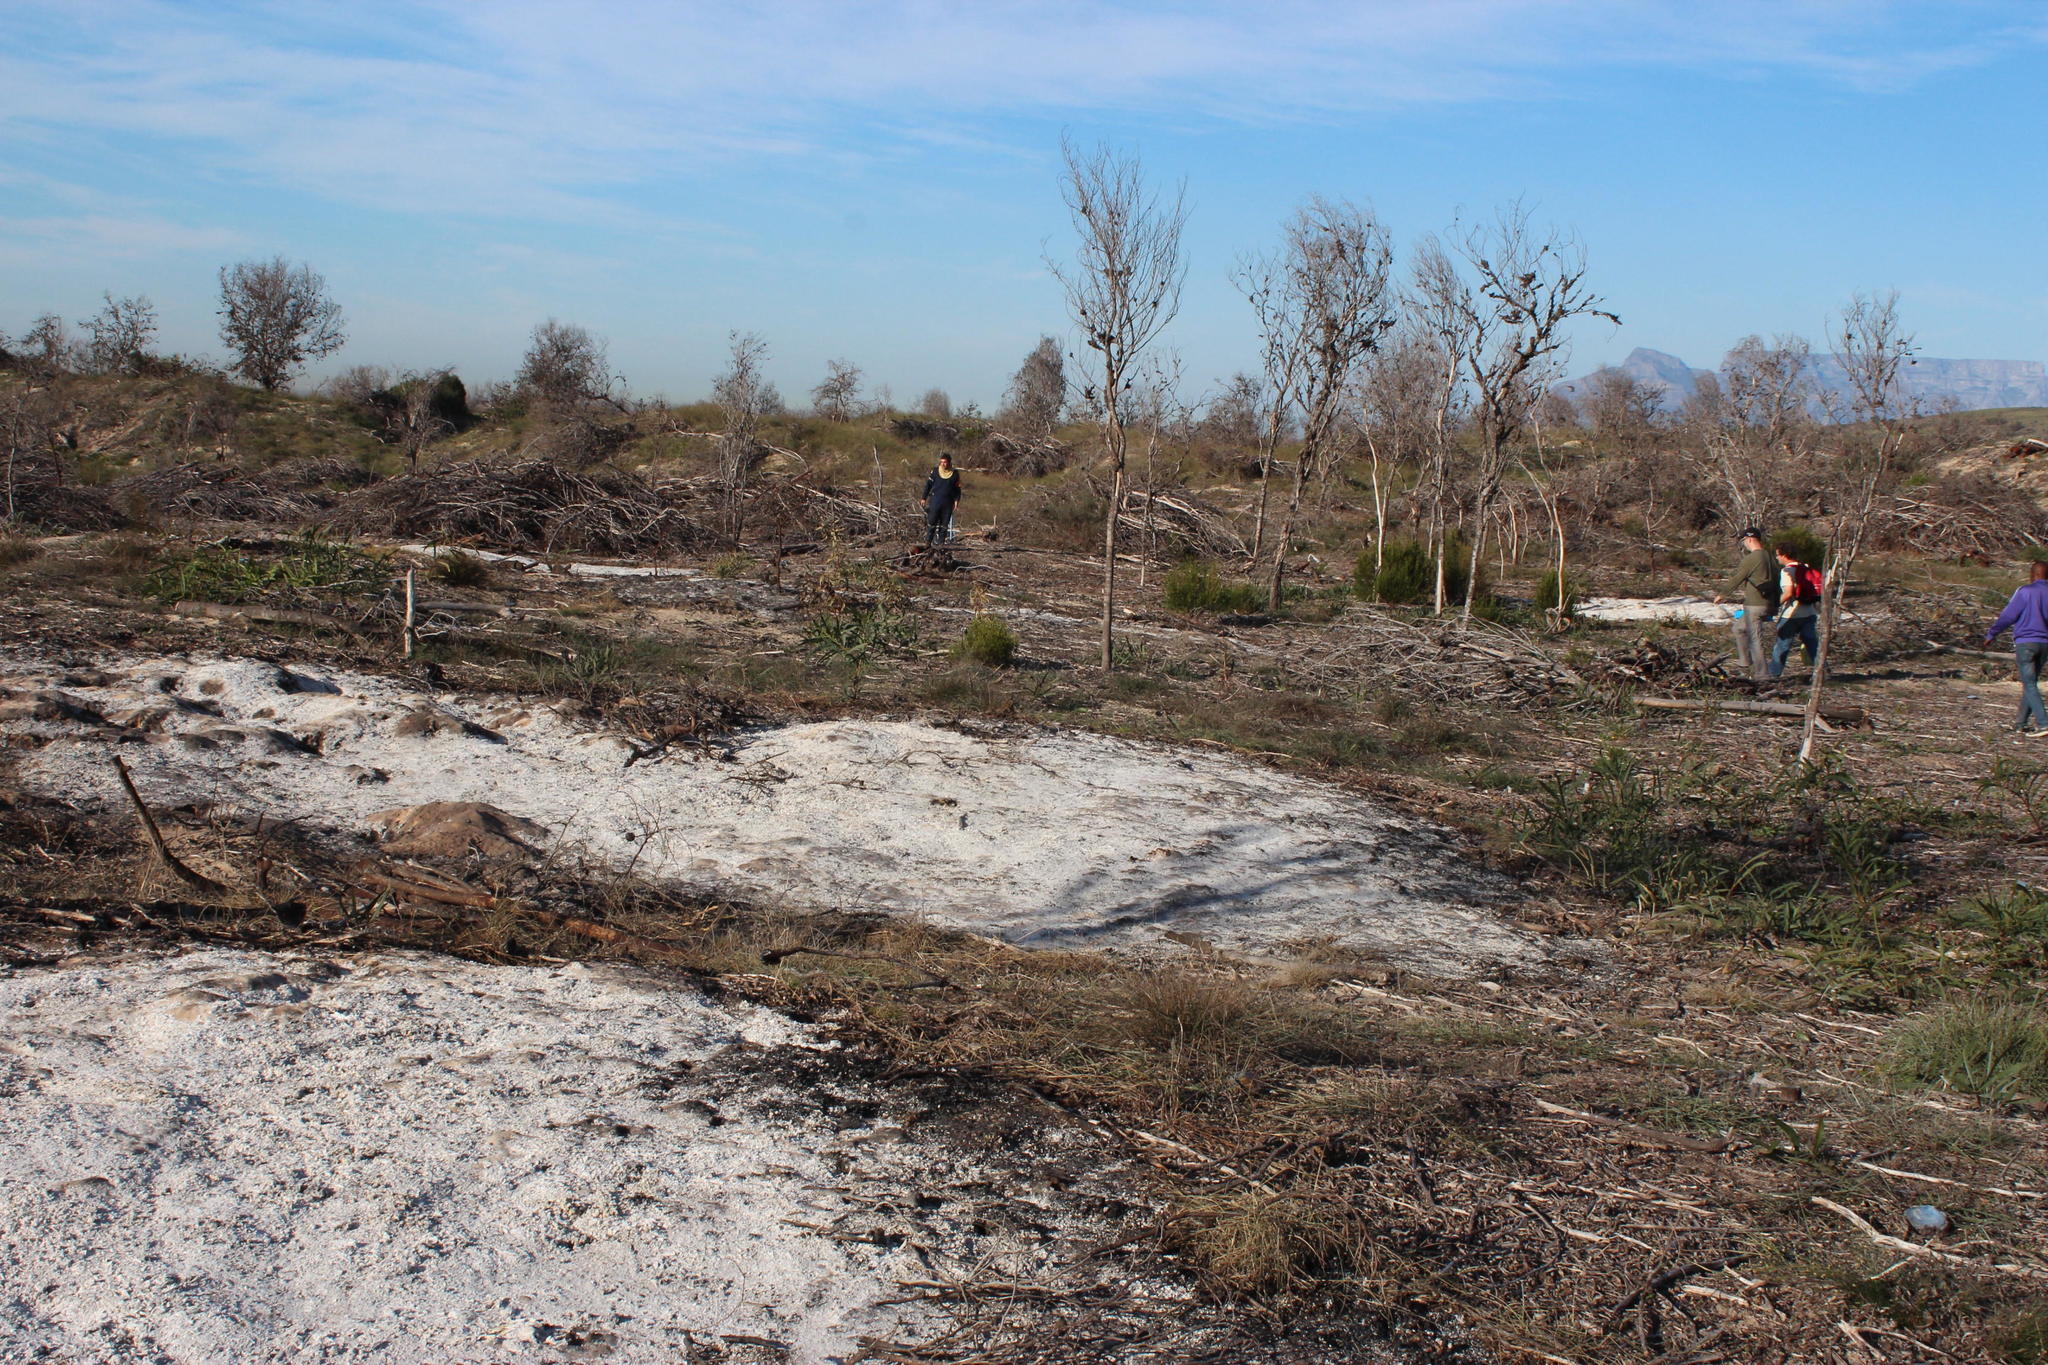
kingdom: Plantae
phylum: Tracheophyta
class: Magnoliopsida
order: Fabales
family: Fabaceae
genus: Acacia
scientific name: Acacia saligna
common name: Orange wattle
